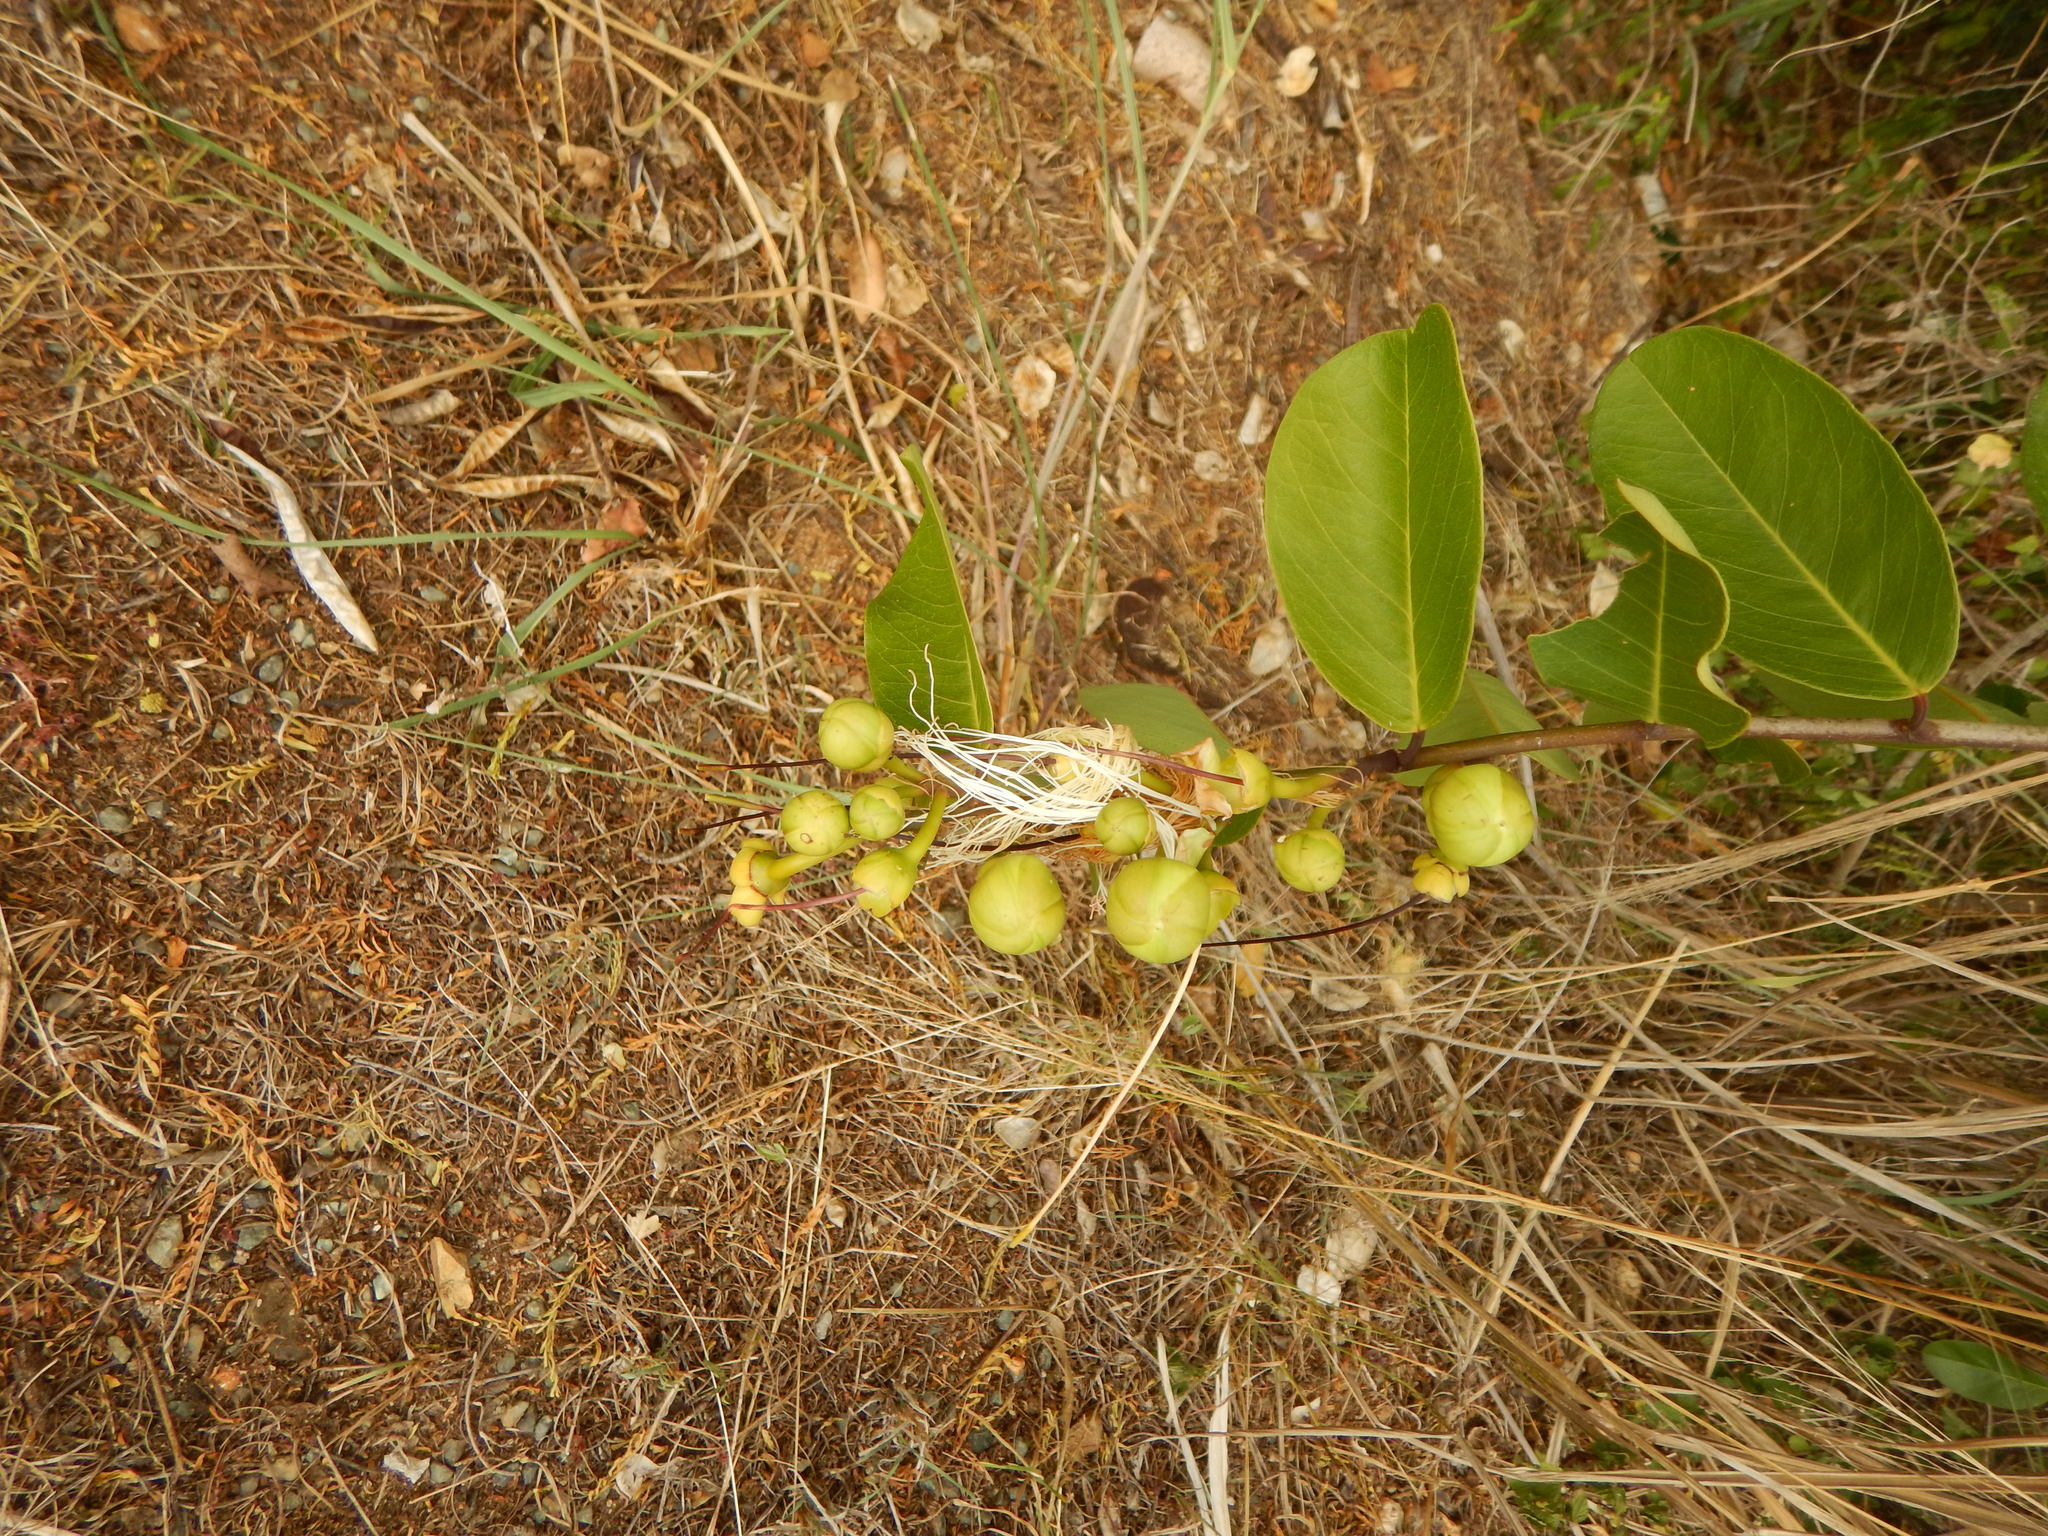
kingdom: Plantae
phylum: Tracheophyta
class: Magnoliopsida
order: Brassicales
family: Capparaceae
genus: Cynophalla
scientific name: Cynophalla flexuosa
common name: Capertree
